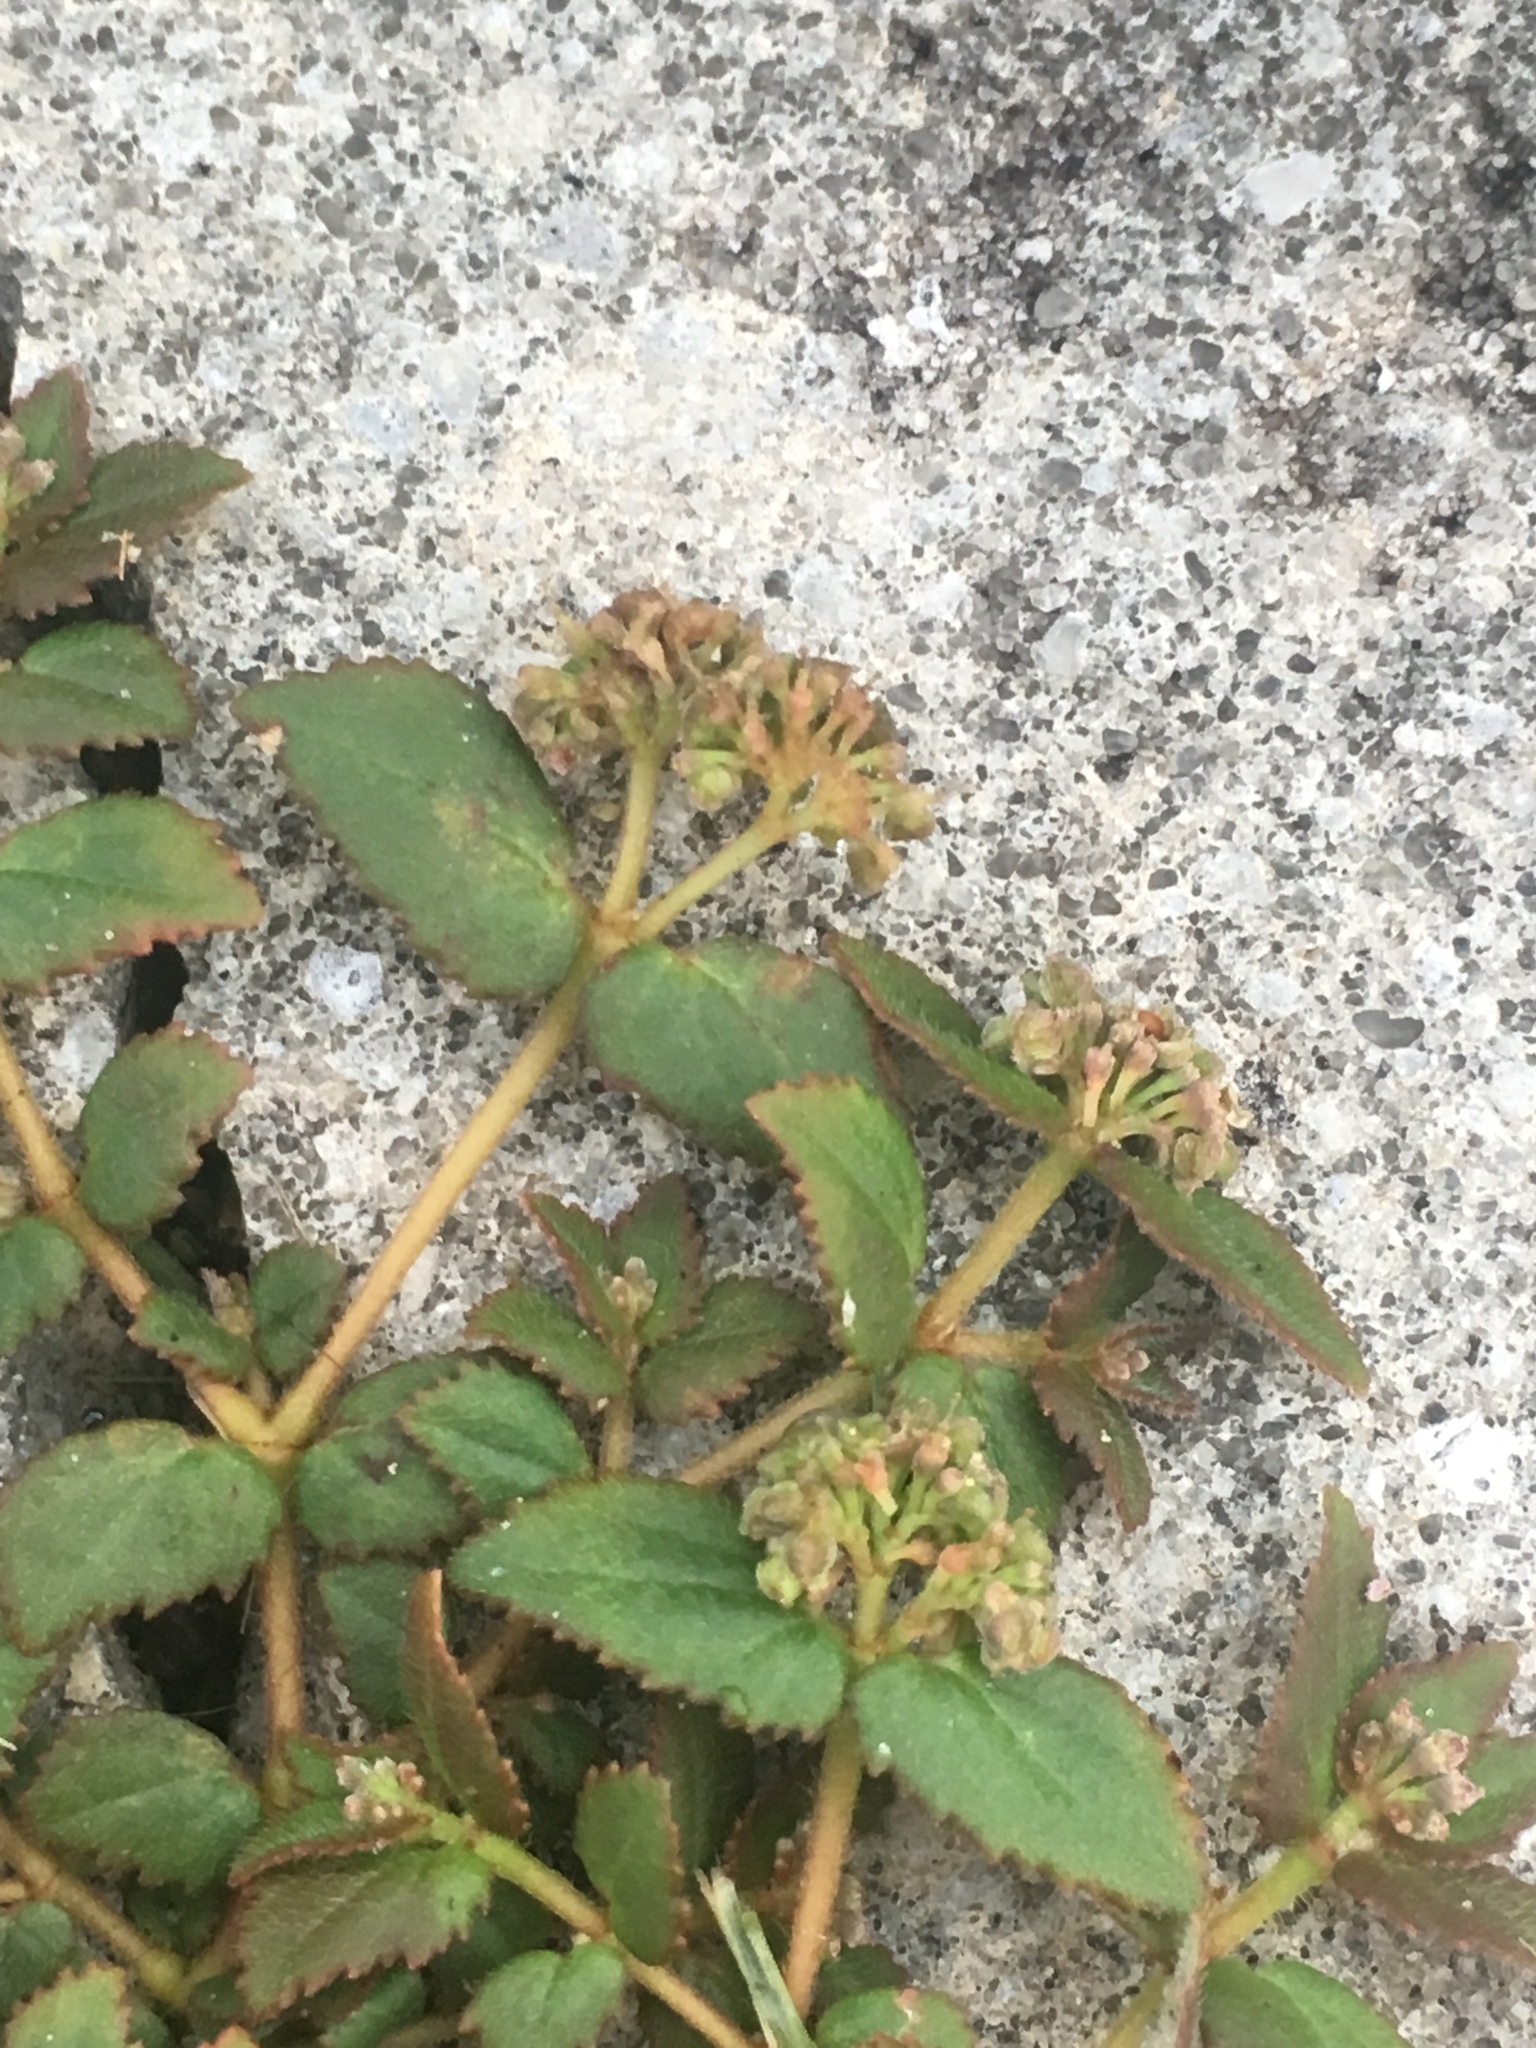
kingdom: Plantae
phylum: Tracheophyta
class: Magnoliopsida
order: Malpighiales
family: Euphorbiaceae
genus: Euphorbia
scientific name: Euphorbia ophthalmica
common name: Florida hammock sandmat
